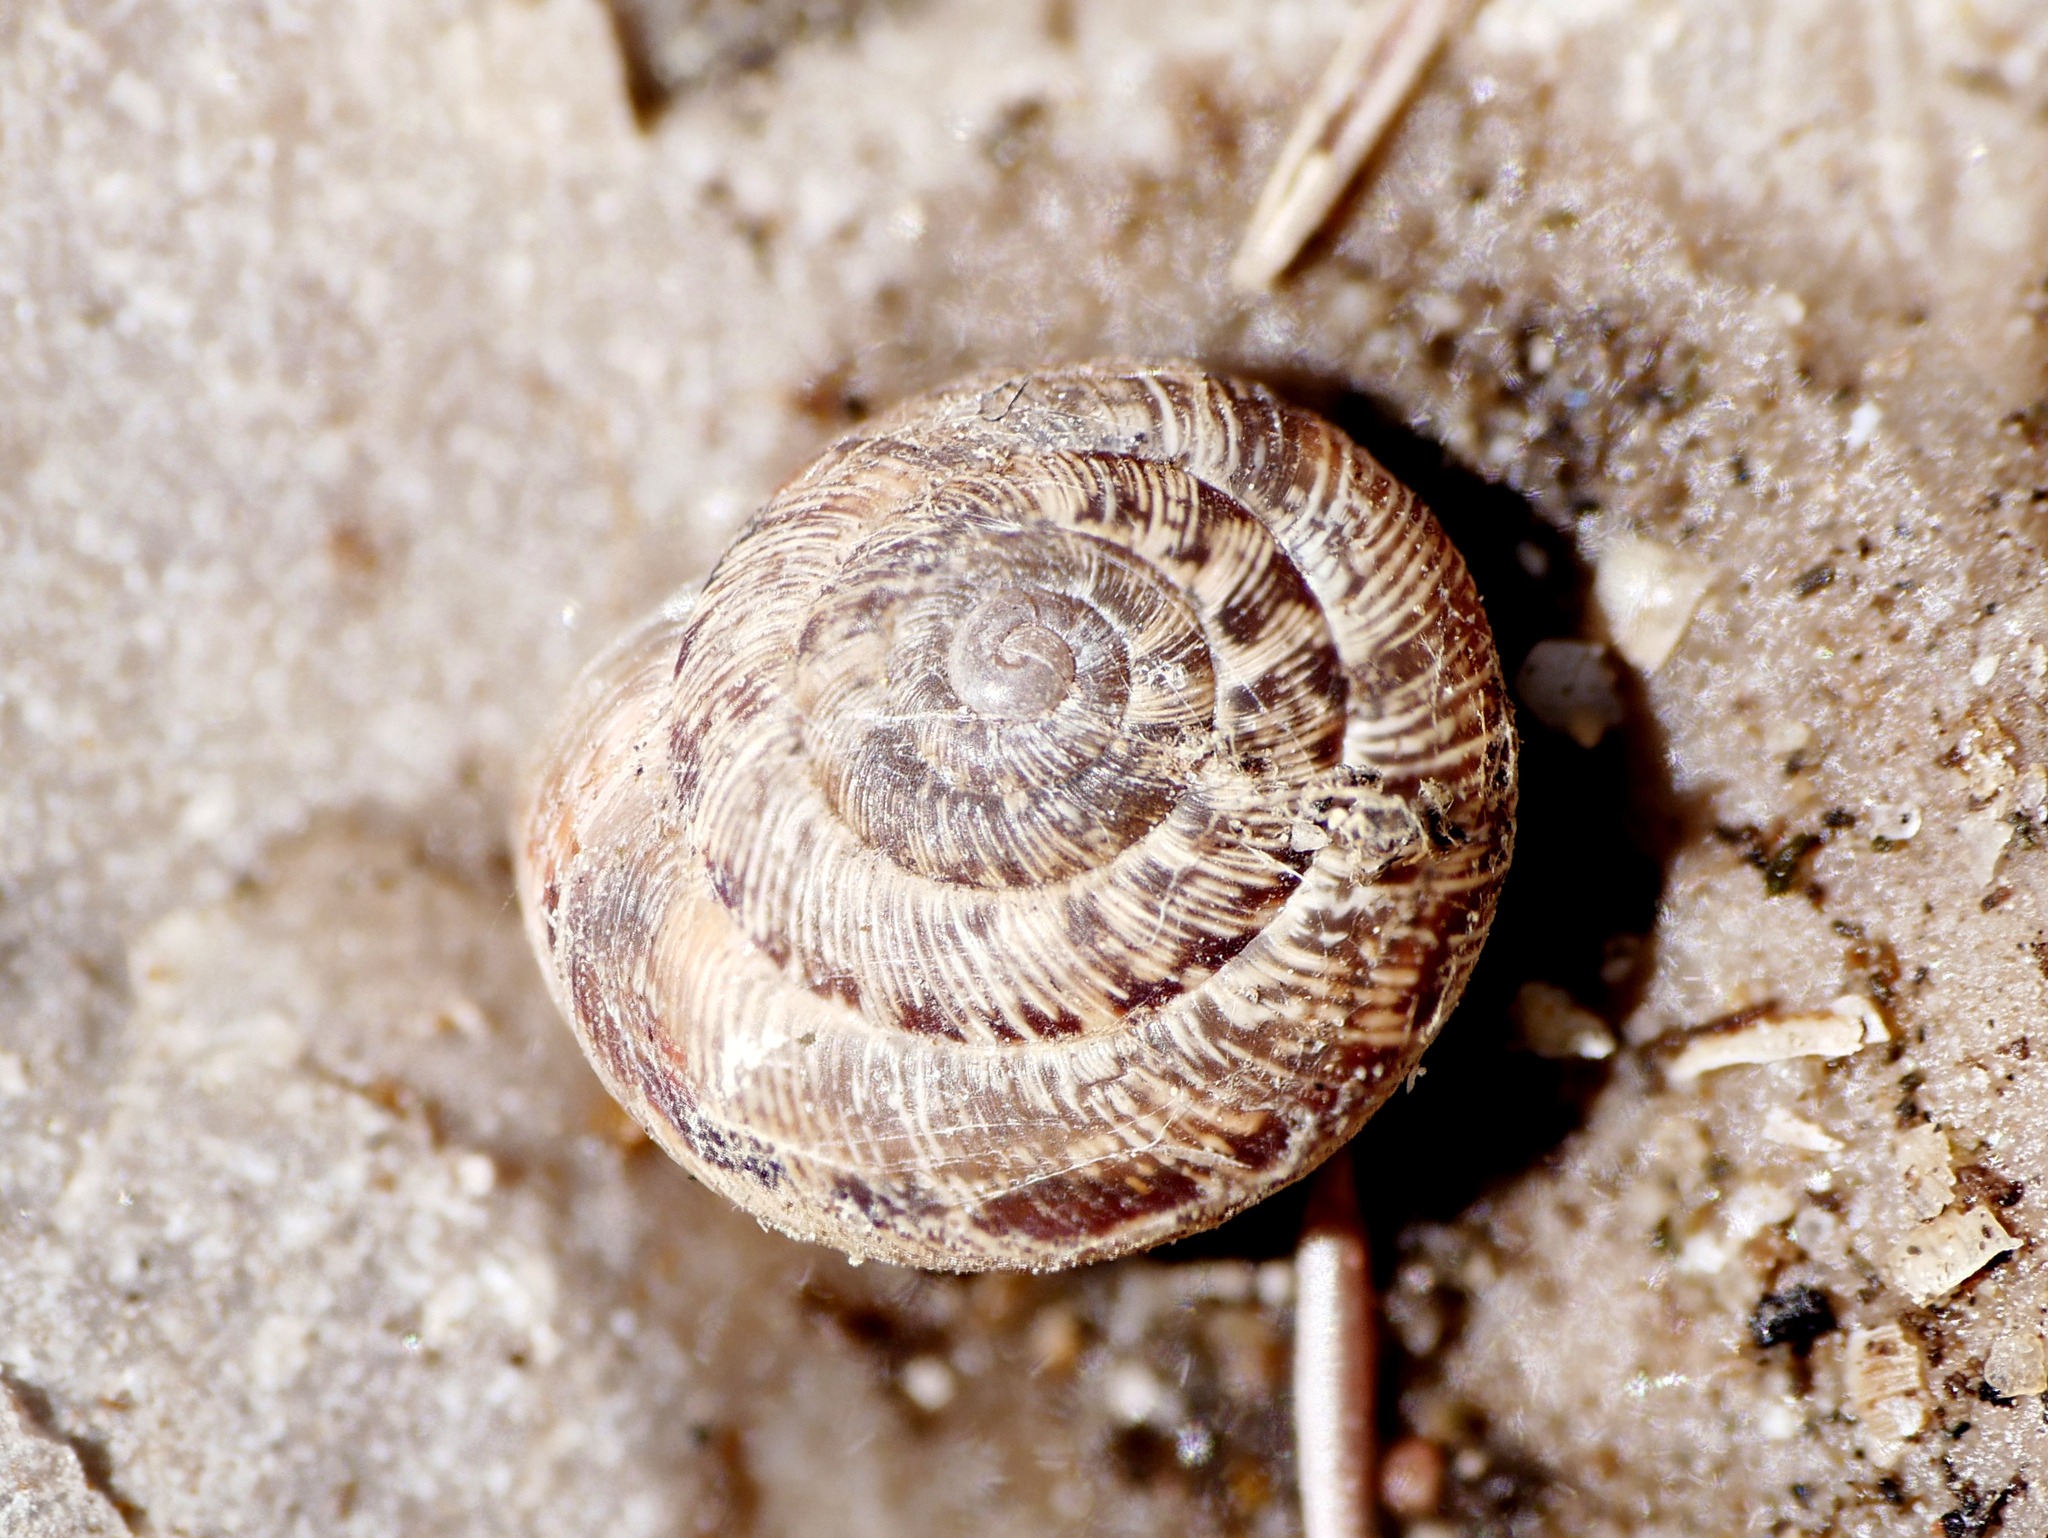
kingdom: Animalia
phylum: Mollusca
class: Gastropoda
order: Stylommatophora
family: Geomitridae
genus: Xeroplexa
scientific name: Xeroplexa intersecta
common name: Wrinkled snail
